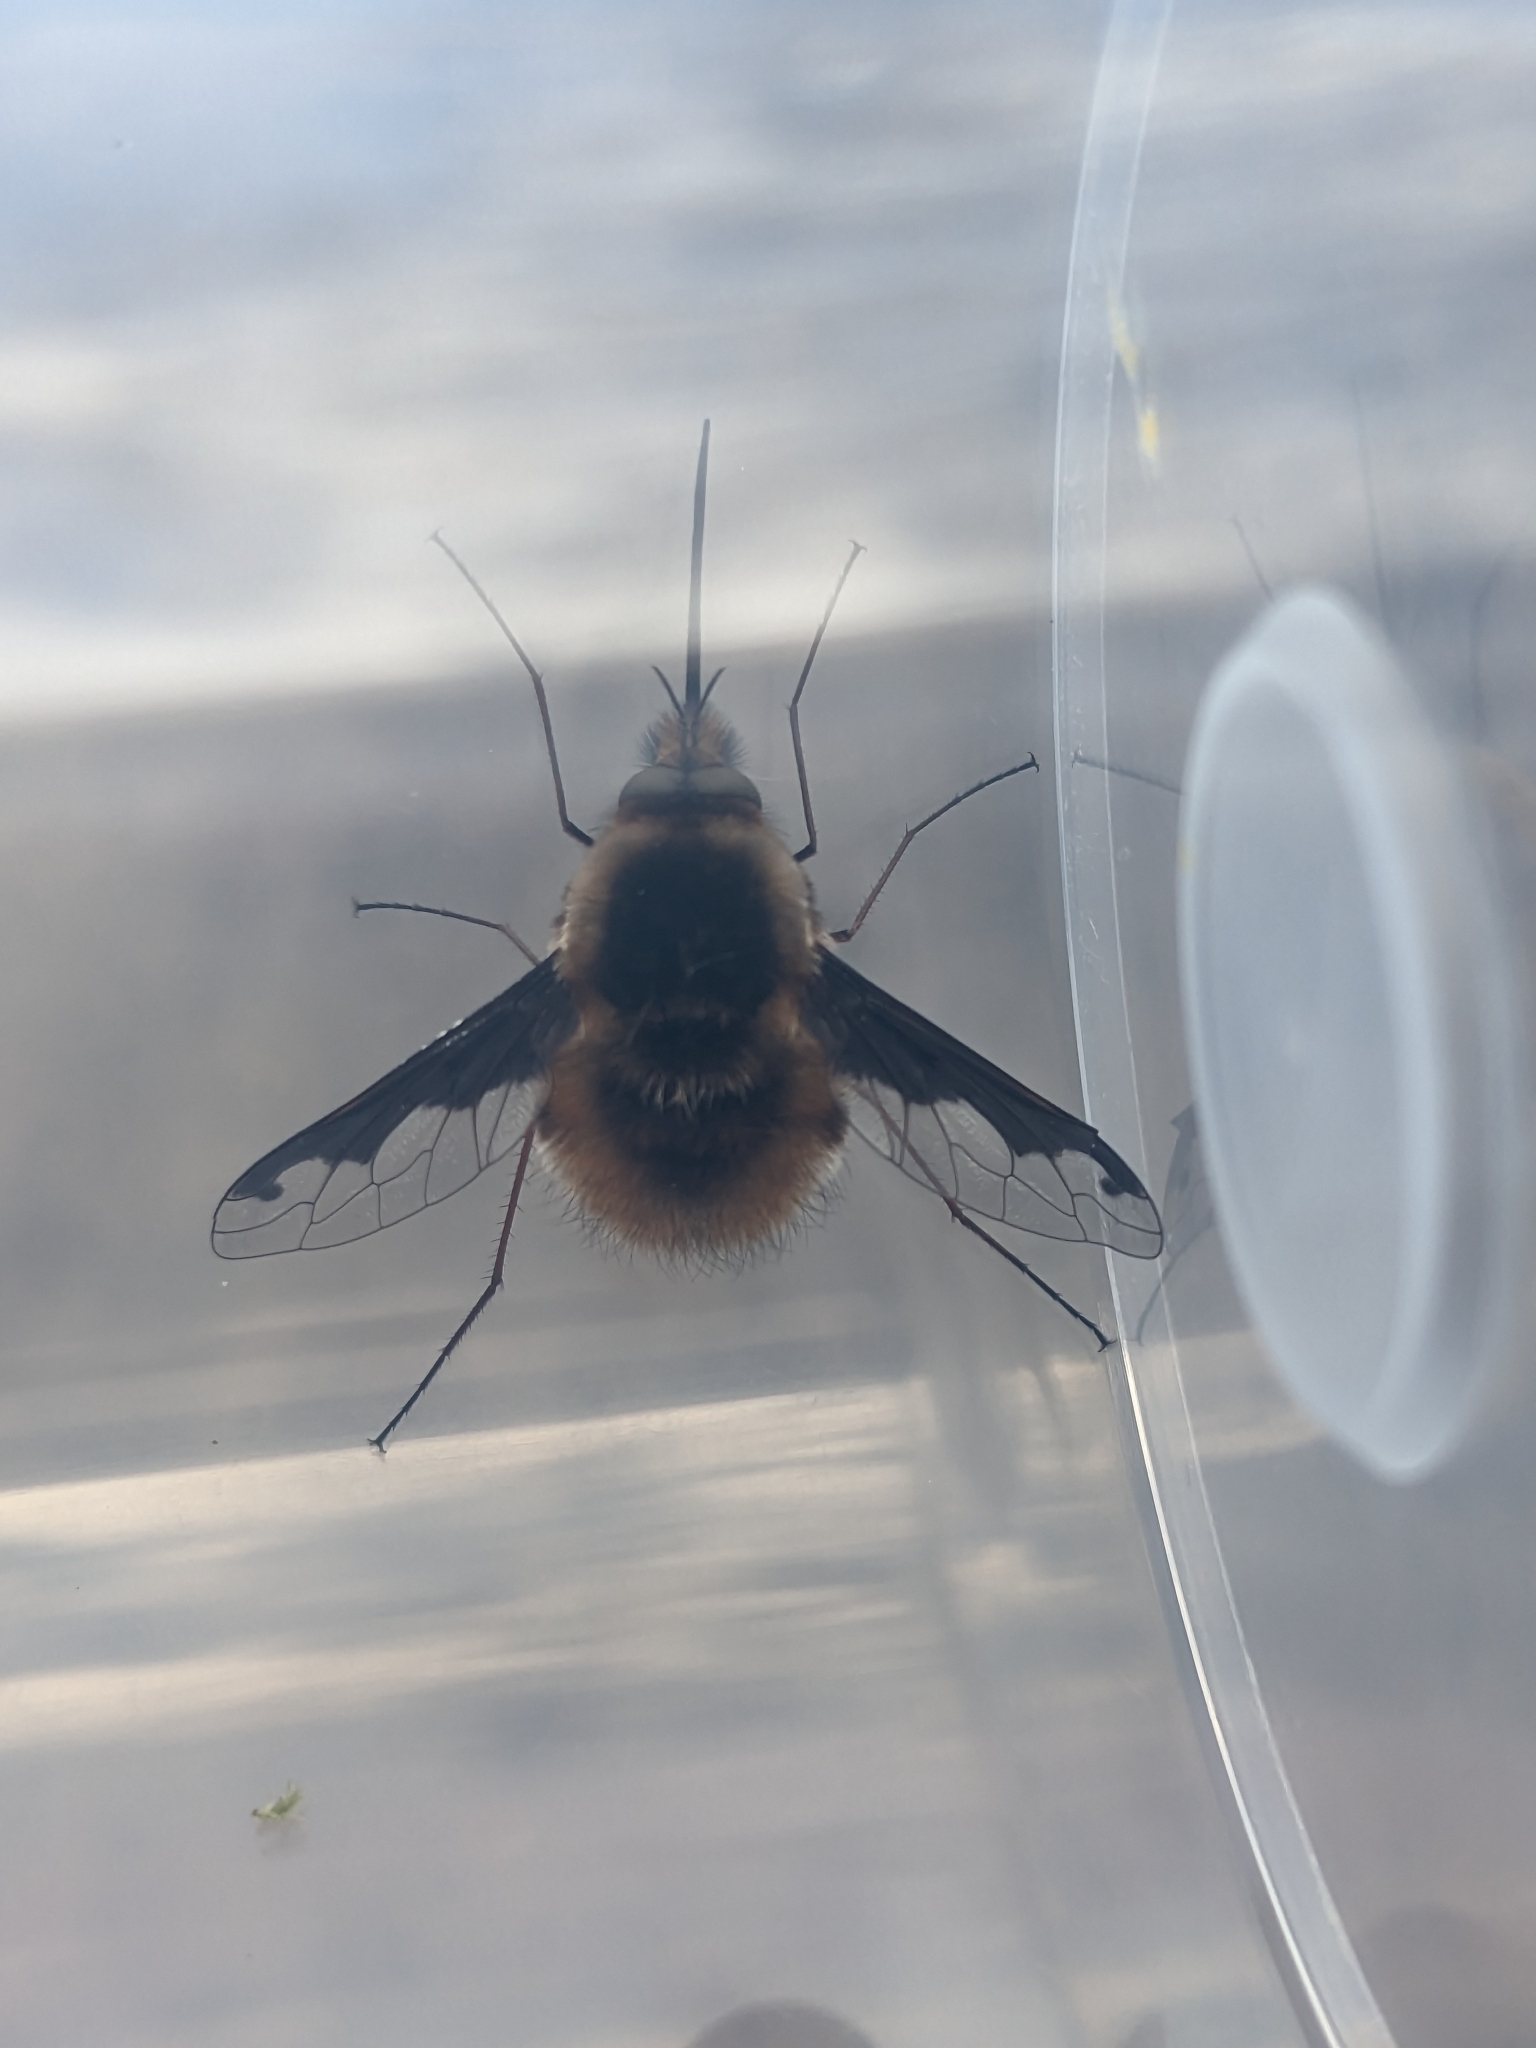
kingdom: Animalia
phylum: Arthropoda
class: Insecta
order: Diptera
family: Bombyliidae
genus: Bombylius
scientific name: Bombylius major
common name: Bee fly
